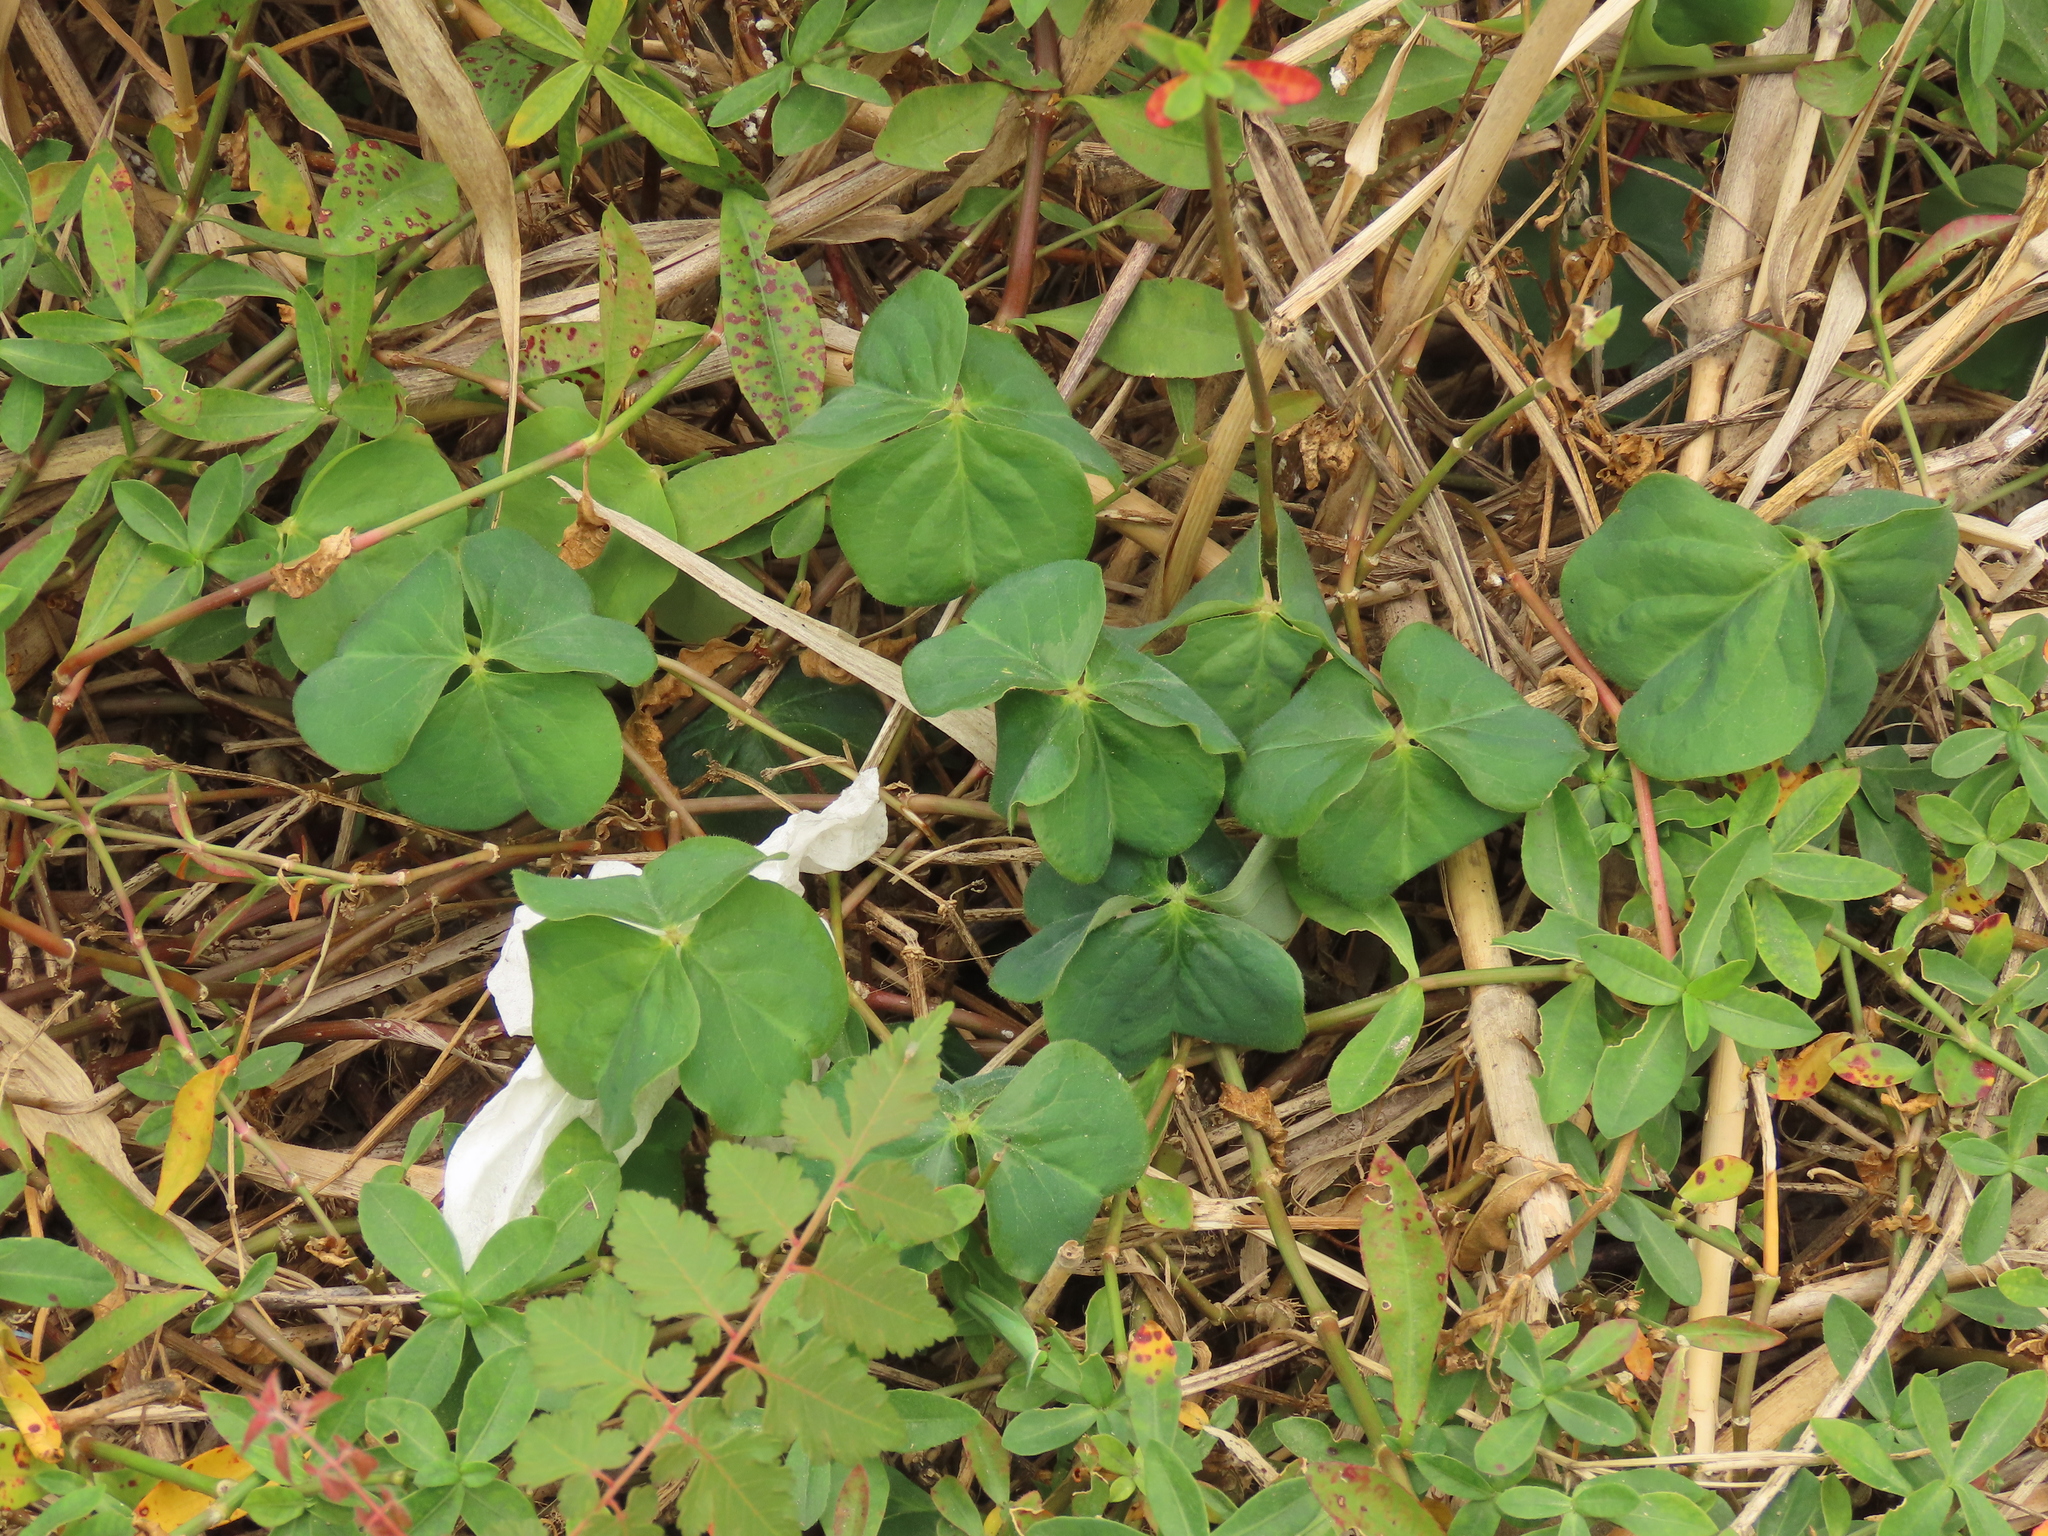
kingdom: Plantae
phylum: Tracheophyta
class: Magnoliopsida
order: Oxalidales
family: Oxalidaceae
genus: Oxalis
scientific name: Oxalis debilis
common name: Large-flowered pink-sorrel
